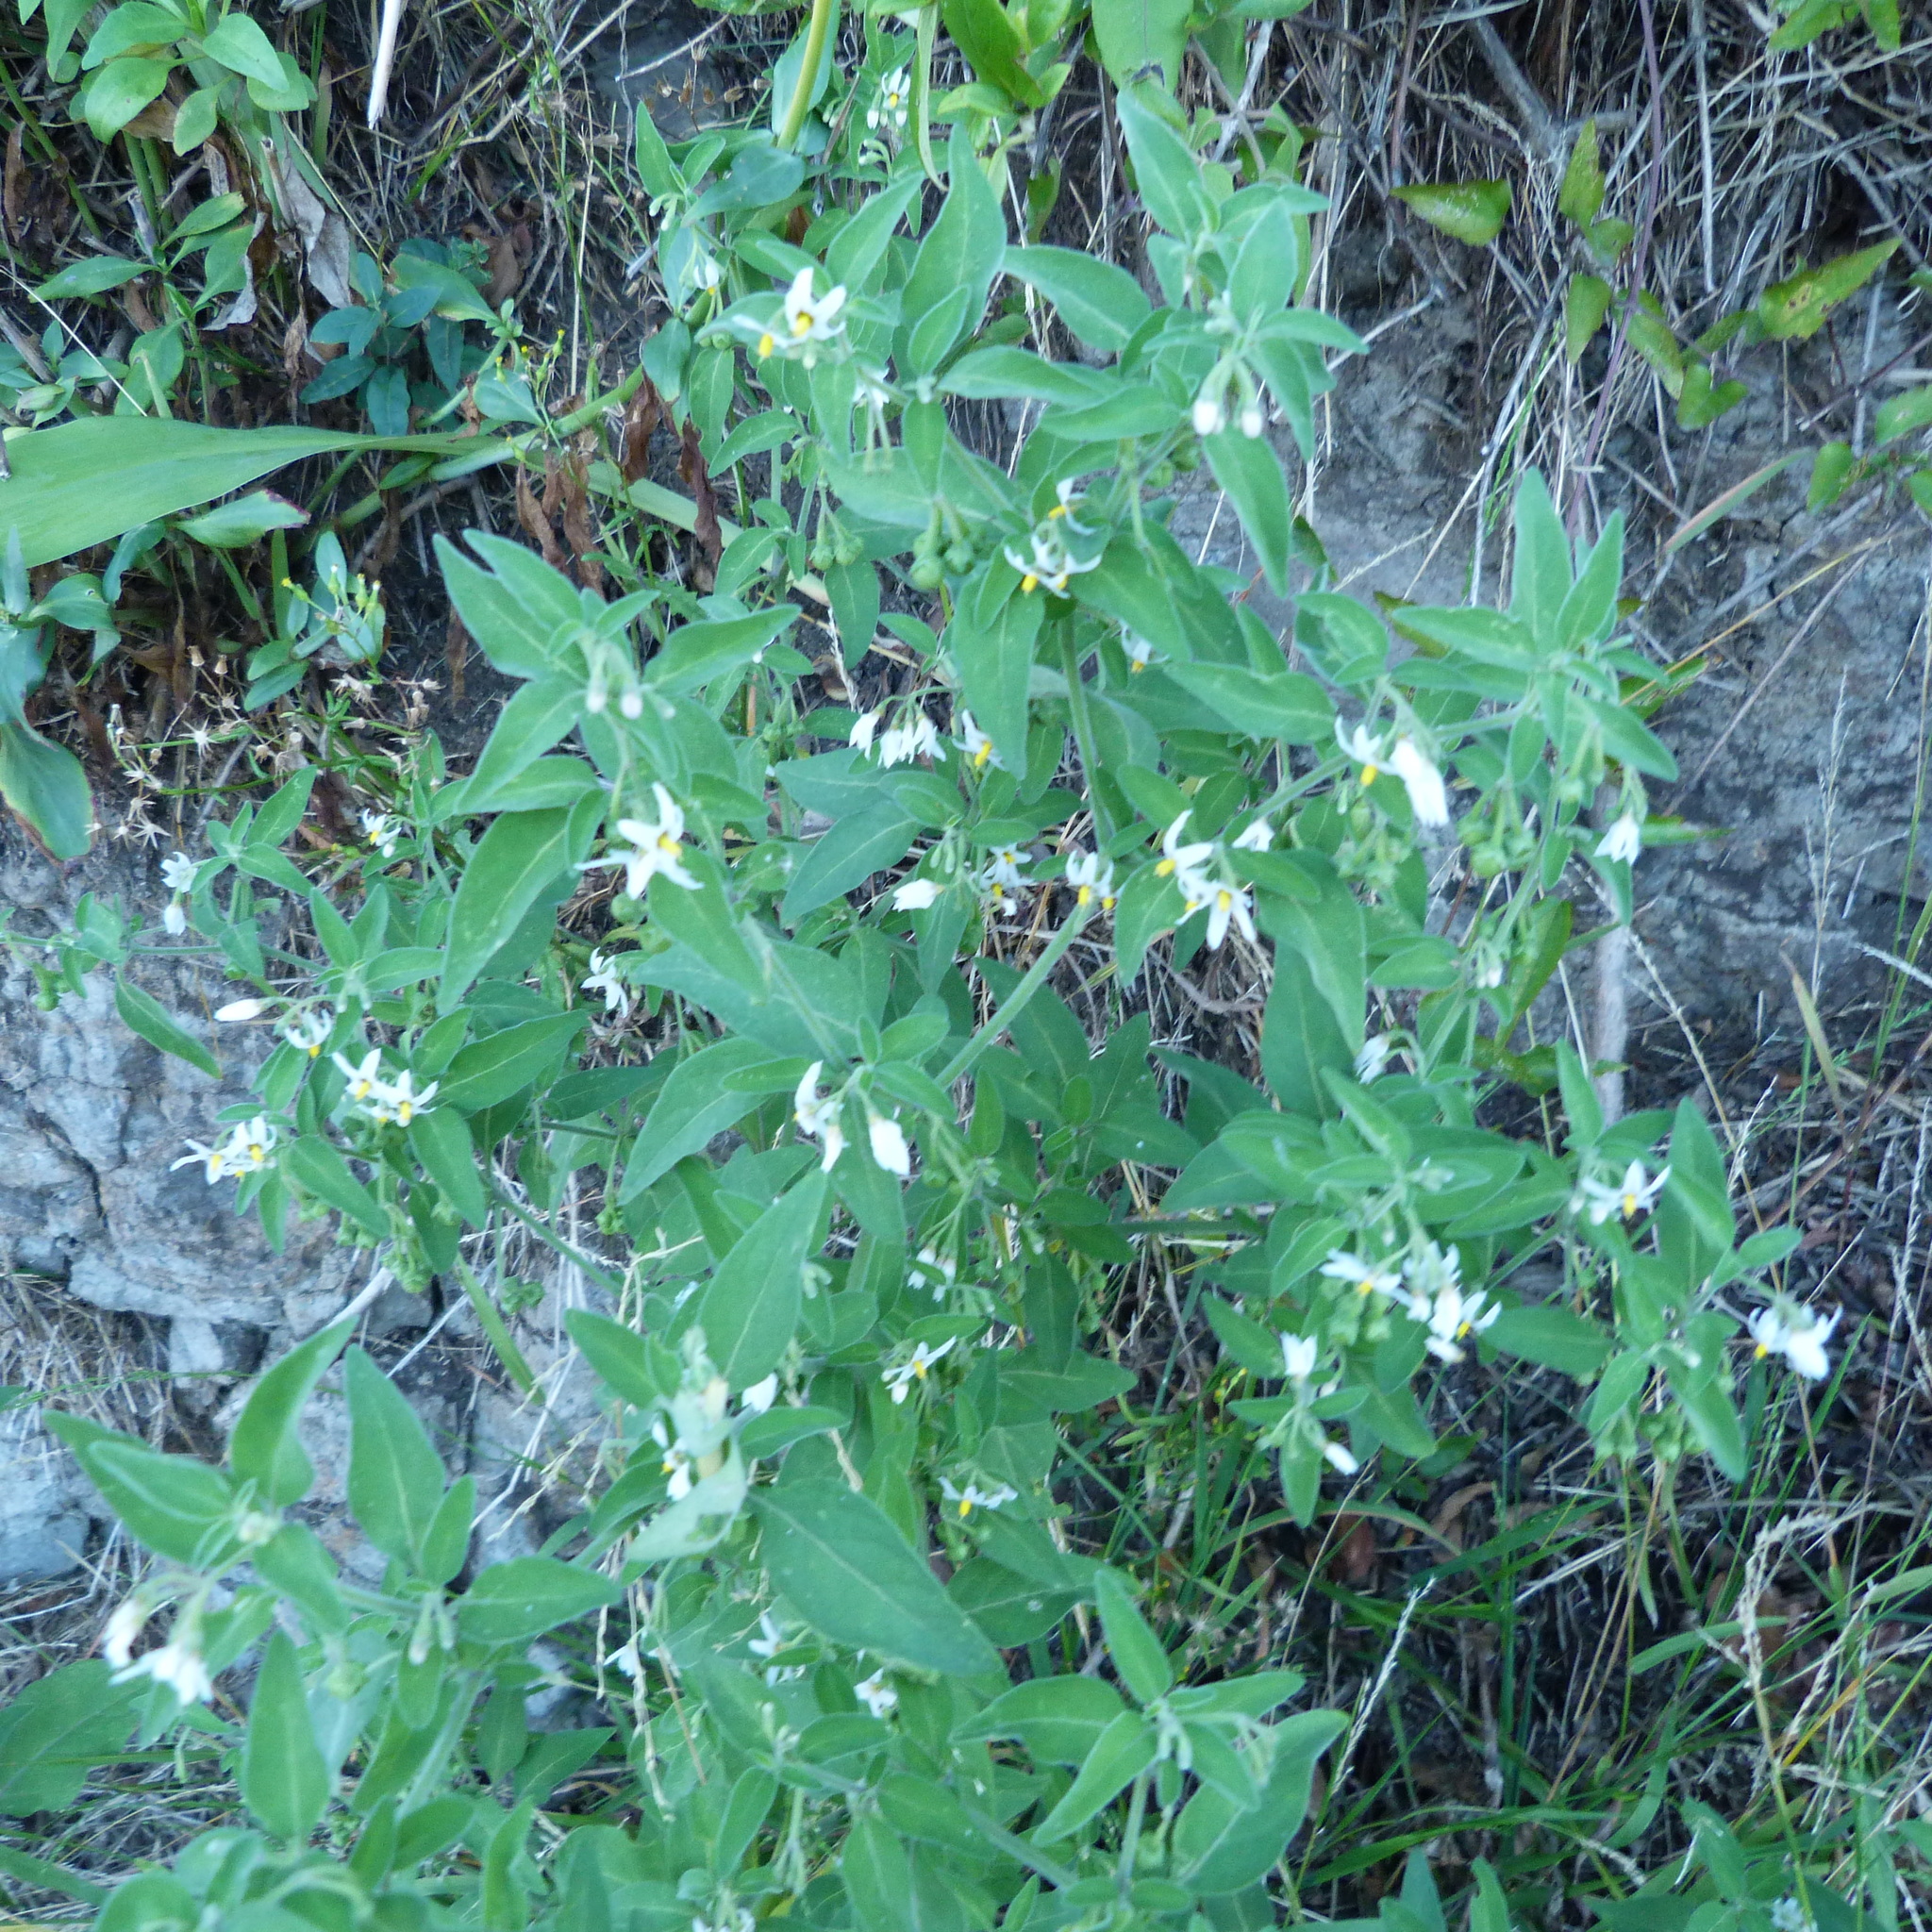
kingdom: Plantae
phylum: Tracheophyta
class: Magnoliopsida
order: Solanales
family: Solanaceae
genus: Solanum
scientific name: Solanum chenopodioides
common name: Tall nightshade
